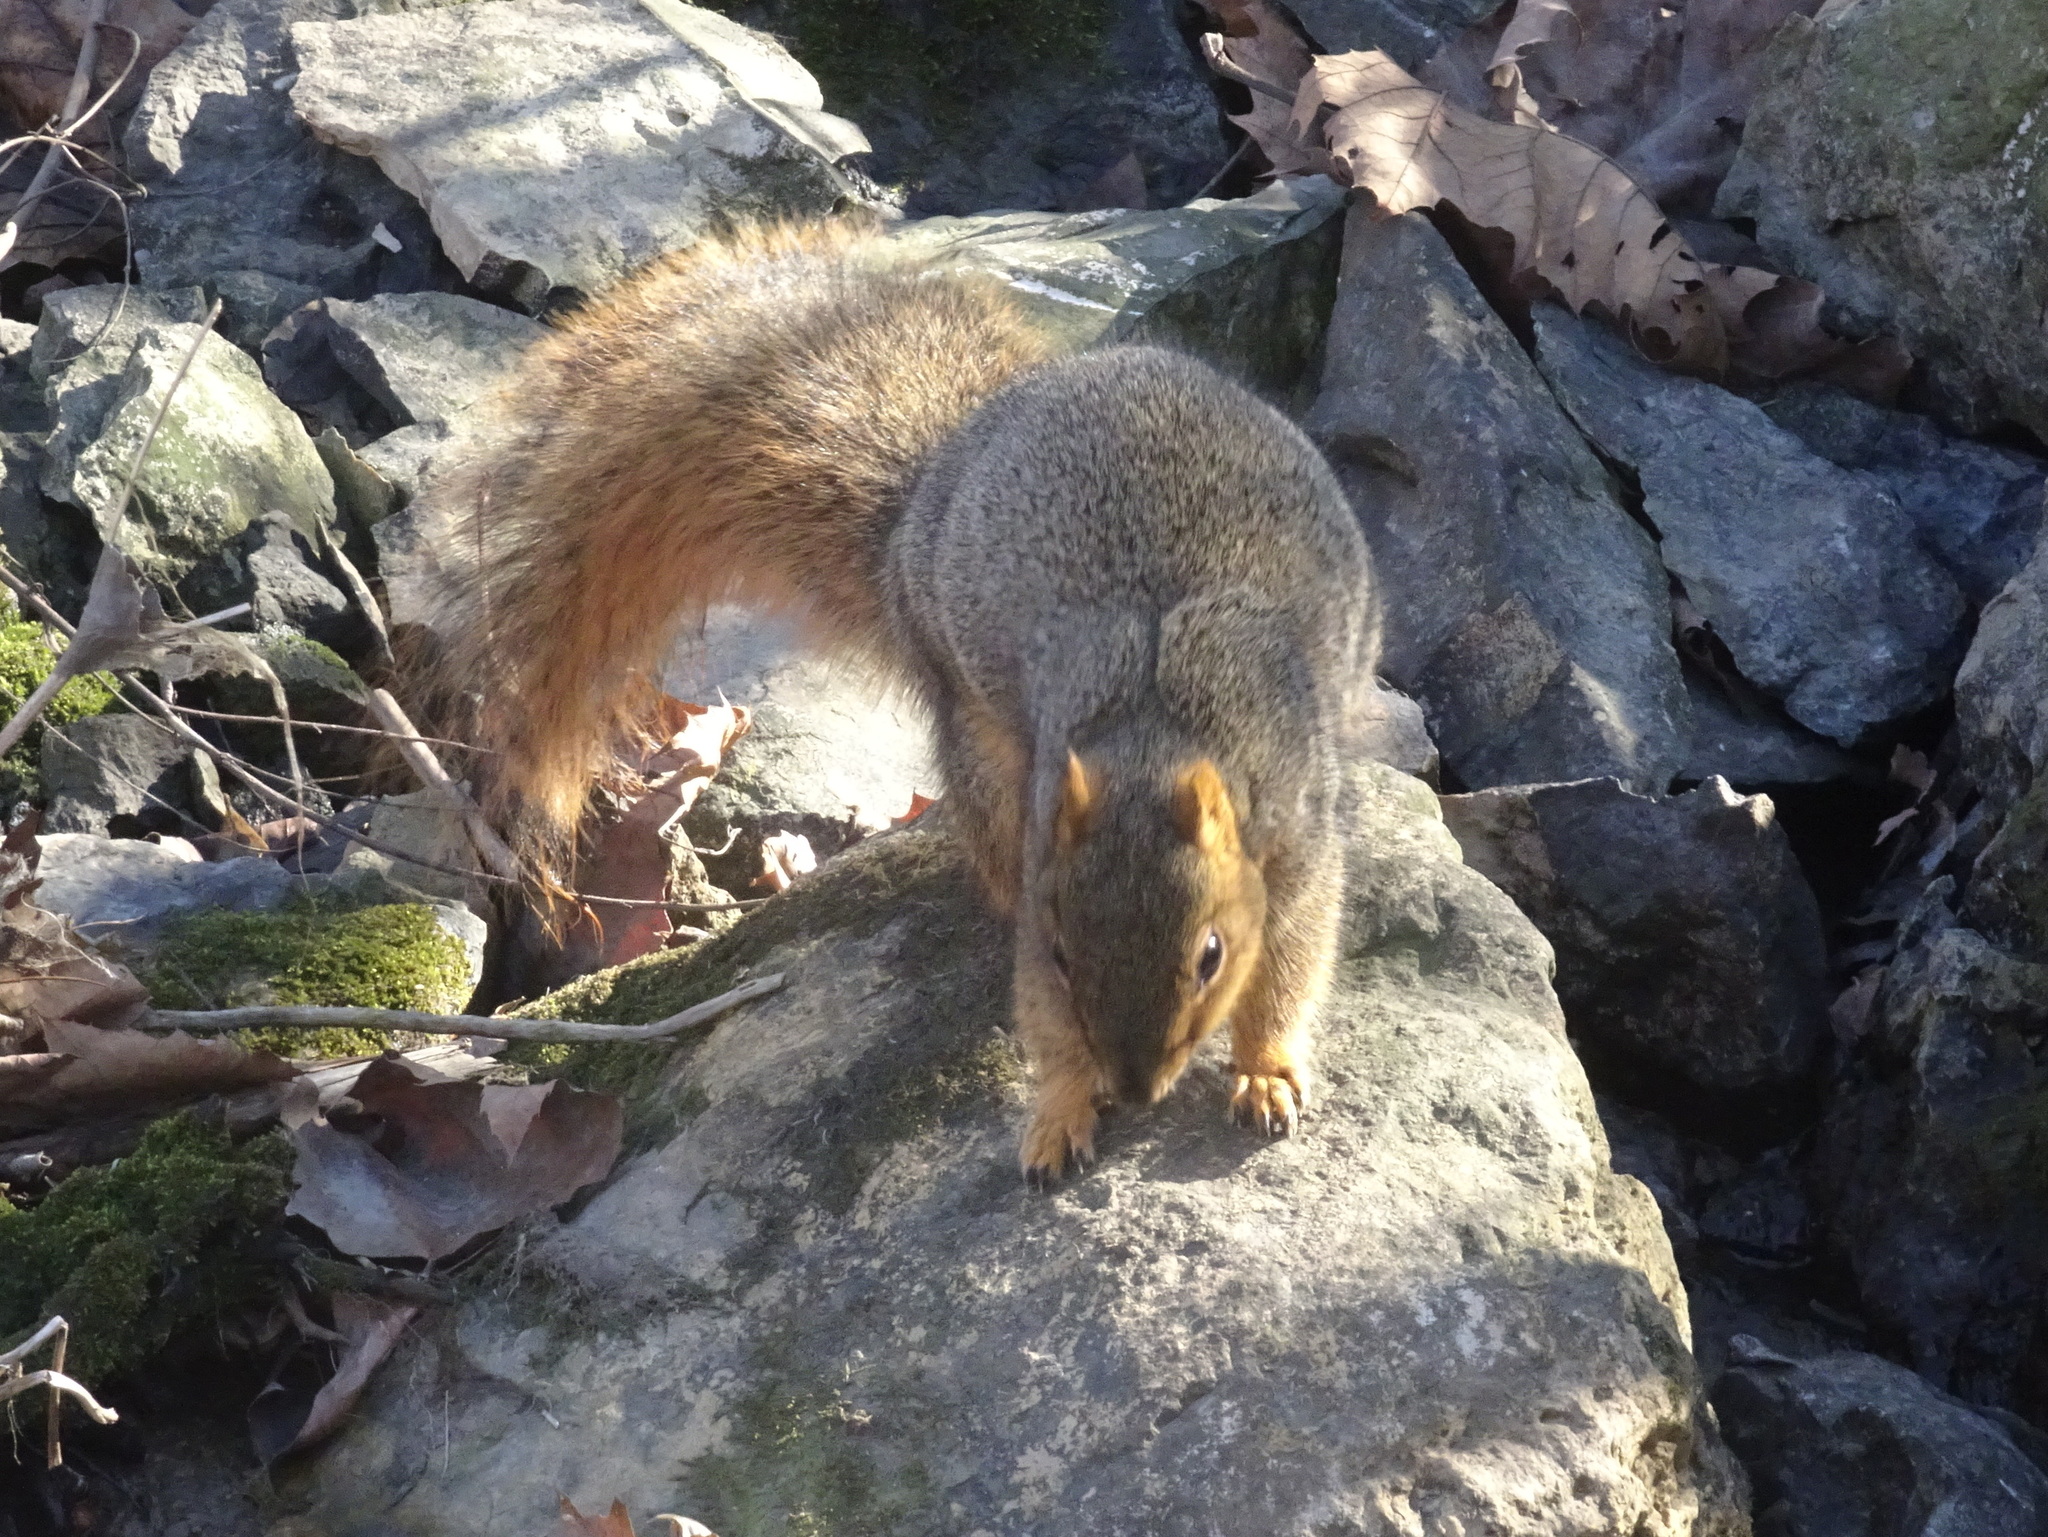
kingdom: Animalia
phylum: Chordata
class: Mammalia
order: Rodentia
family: Sciuridae
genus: Sciurus
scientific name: Sciurus niger
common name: Fox squirrel
